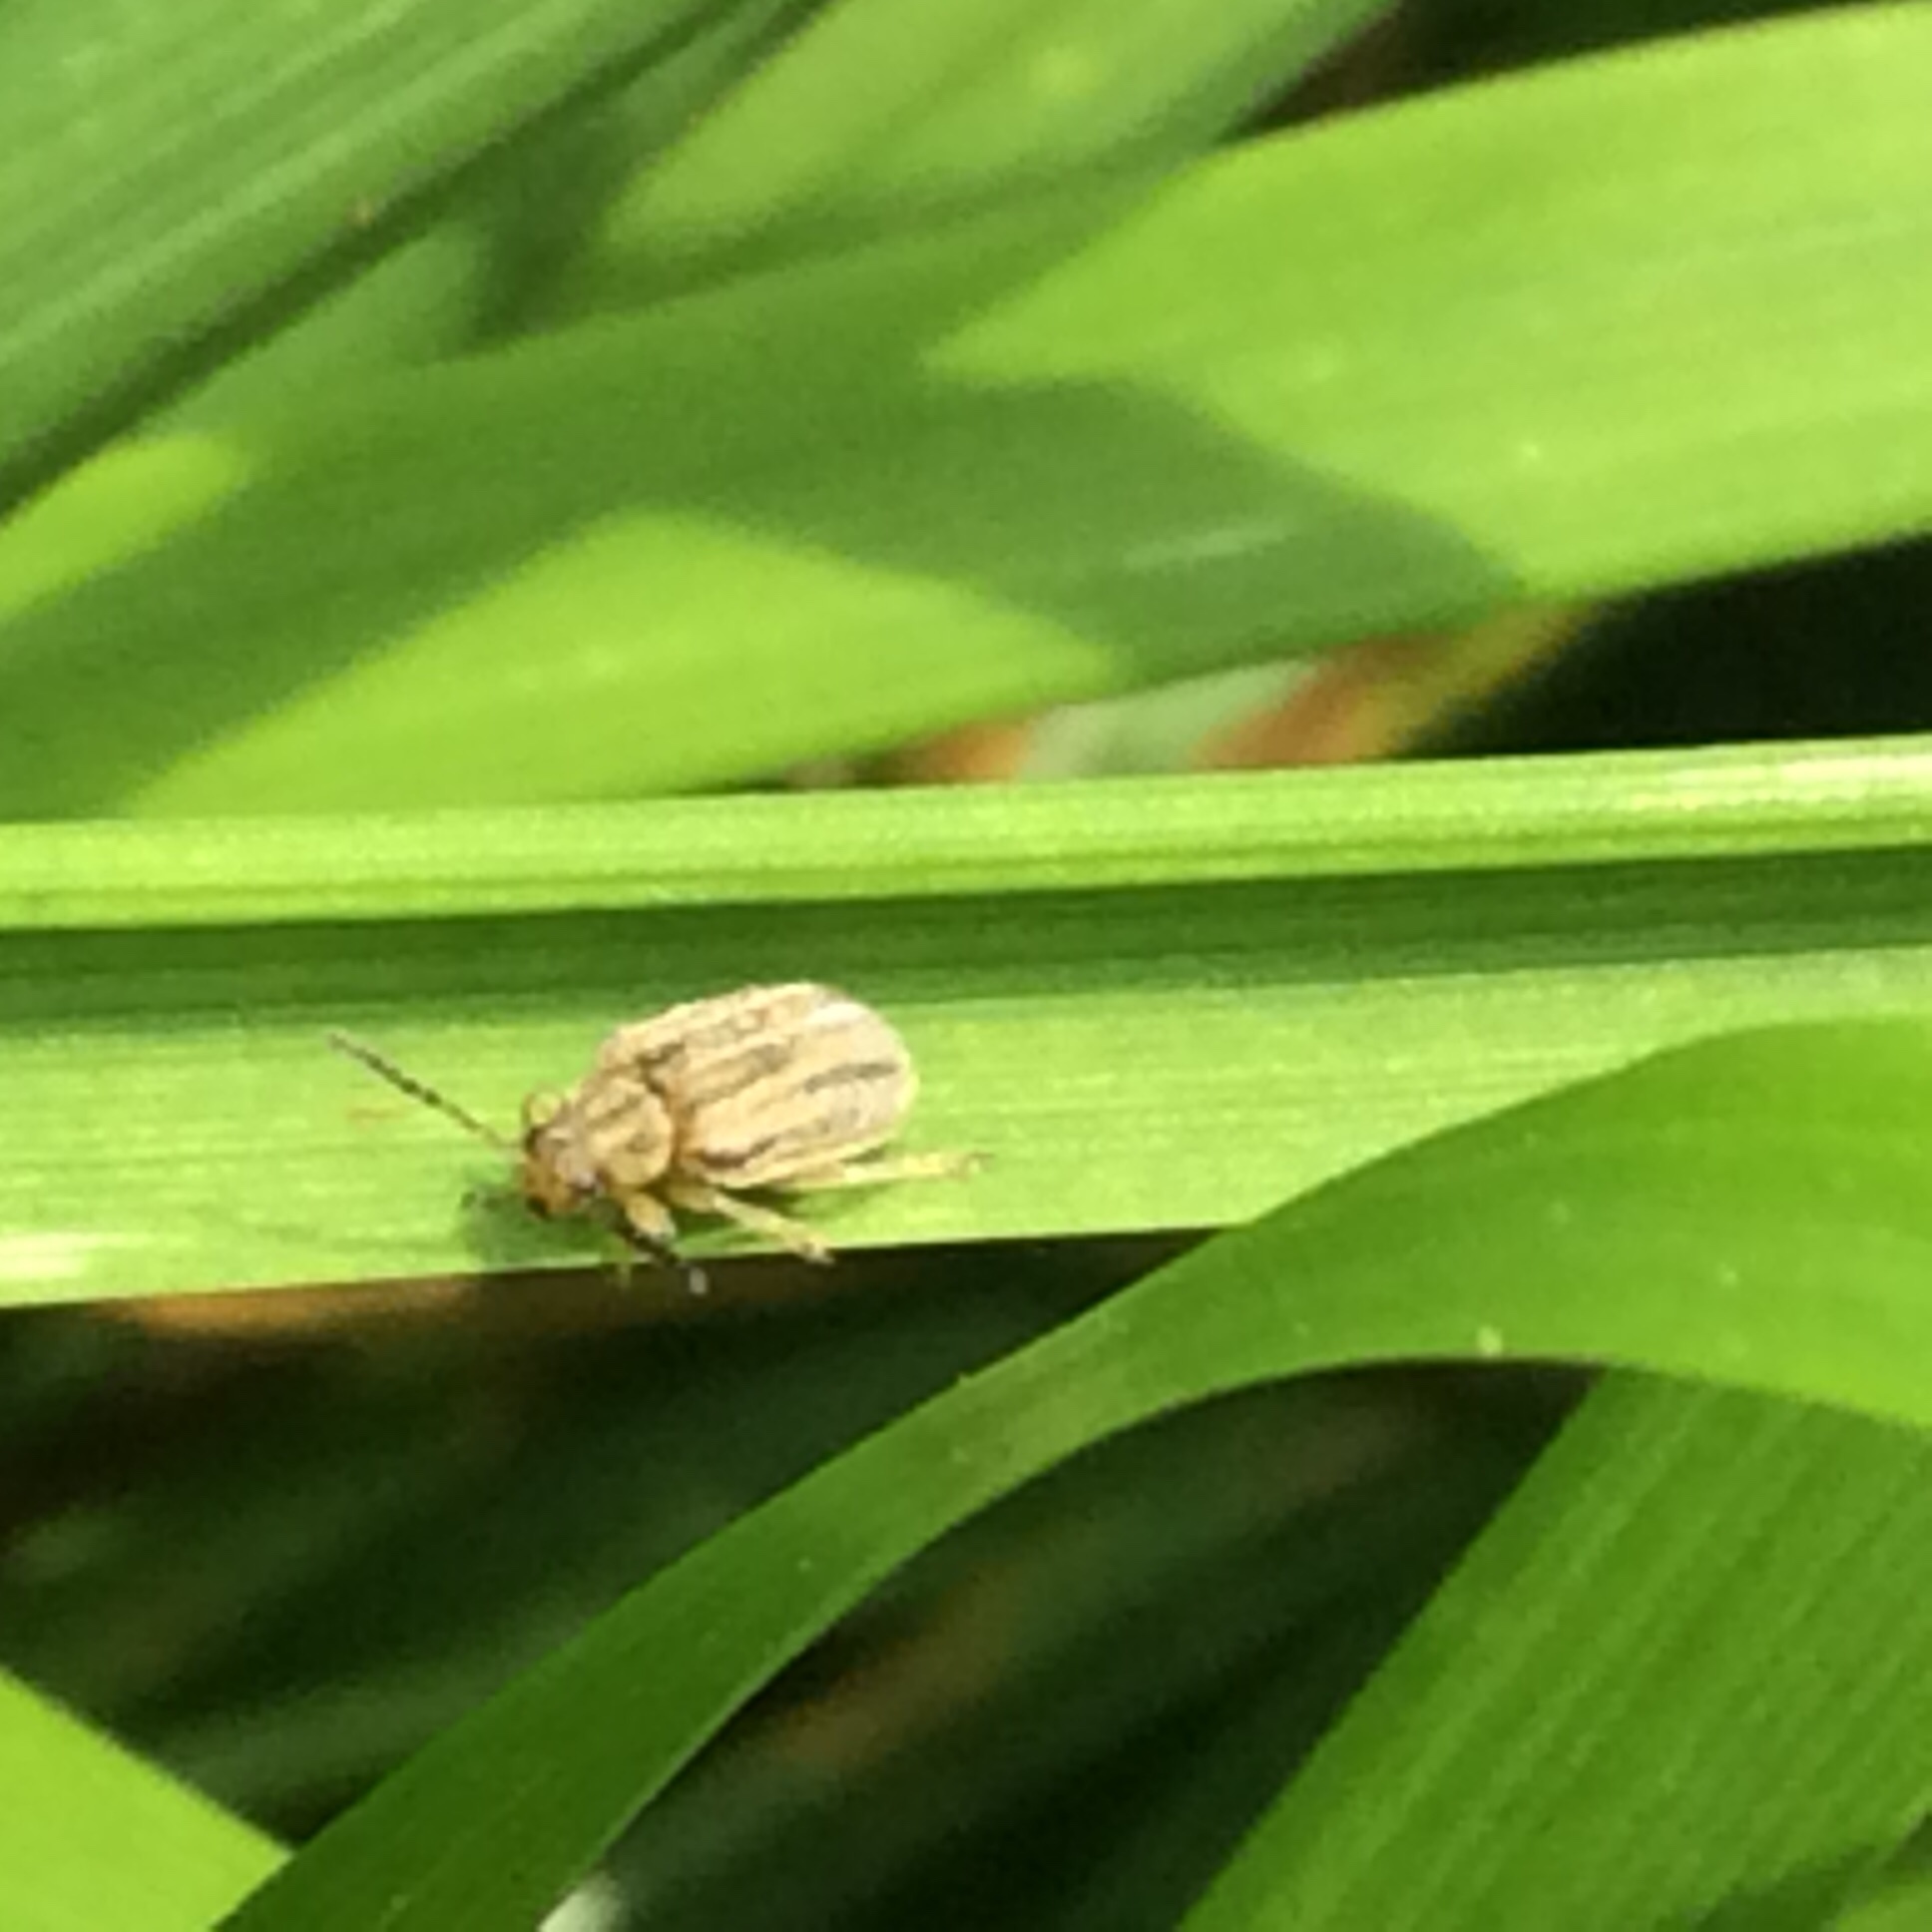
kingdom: Animalia
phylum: Arthropoda
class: Insecta
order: Coleoptera
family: Chrysomelidae
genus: Ophraella
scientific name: Ophraella communa
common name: Ragweed leaf beetle
